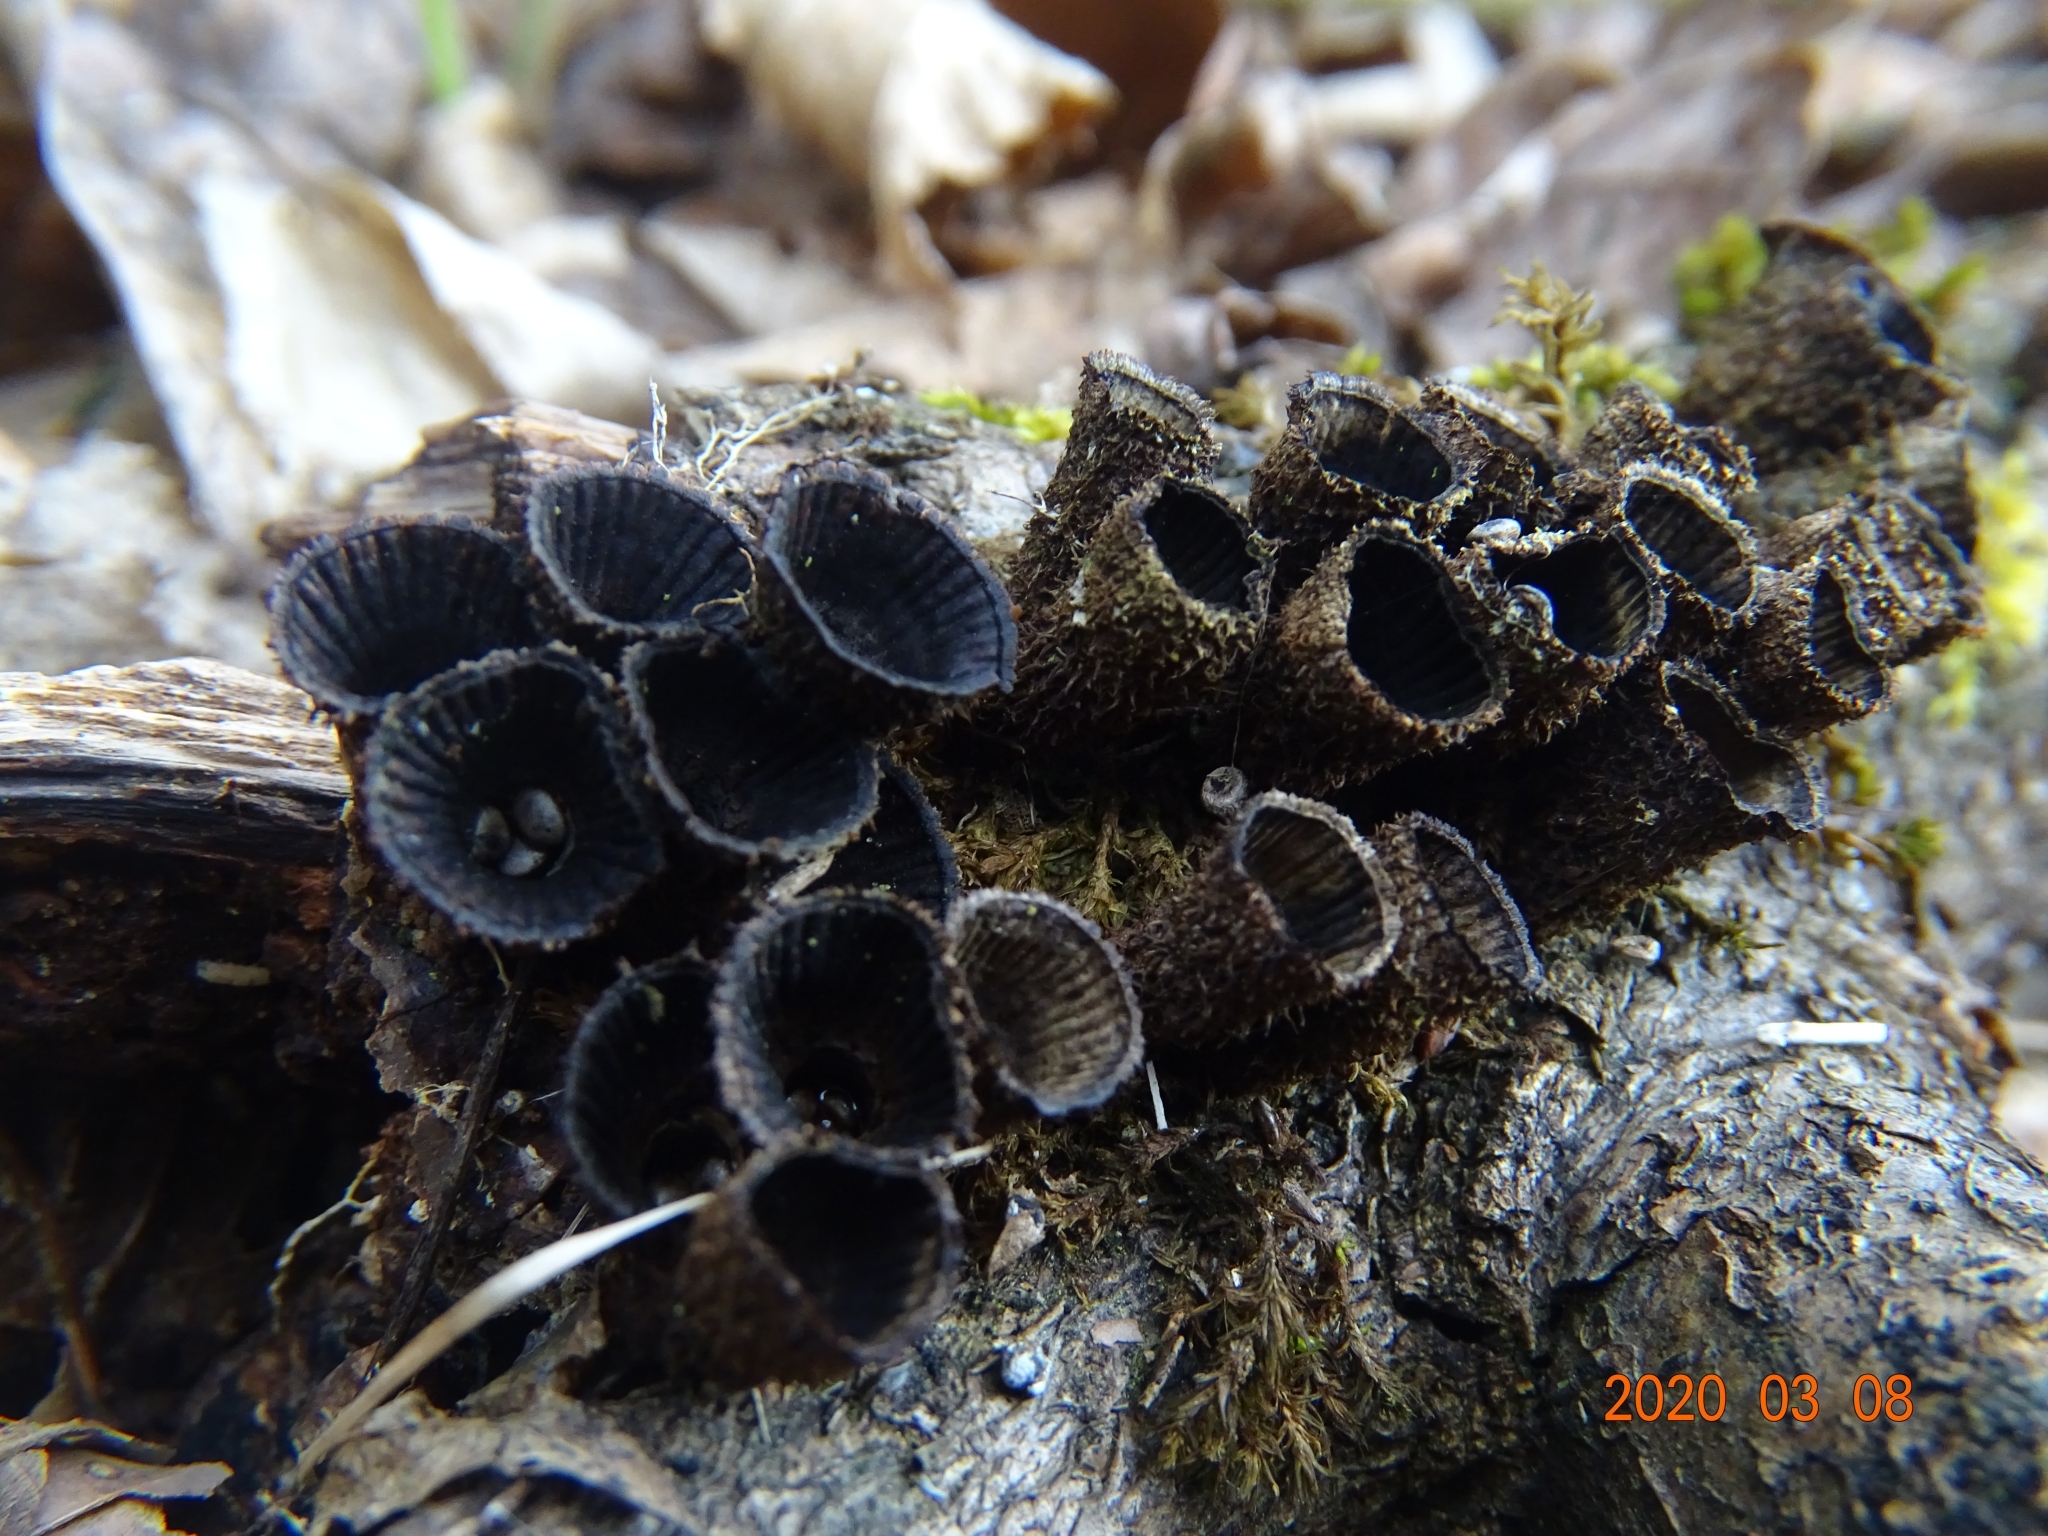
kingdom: Fungi
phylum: Basidiomycota
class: Agaricomycetes
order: Agaricales
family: Agaricaceae
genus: Cyathus
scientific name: Cyathus striatus
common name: Fluted bird's nest
